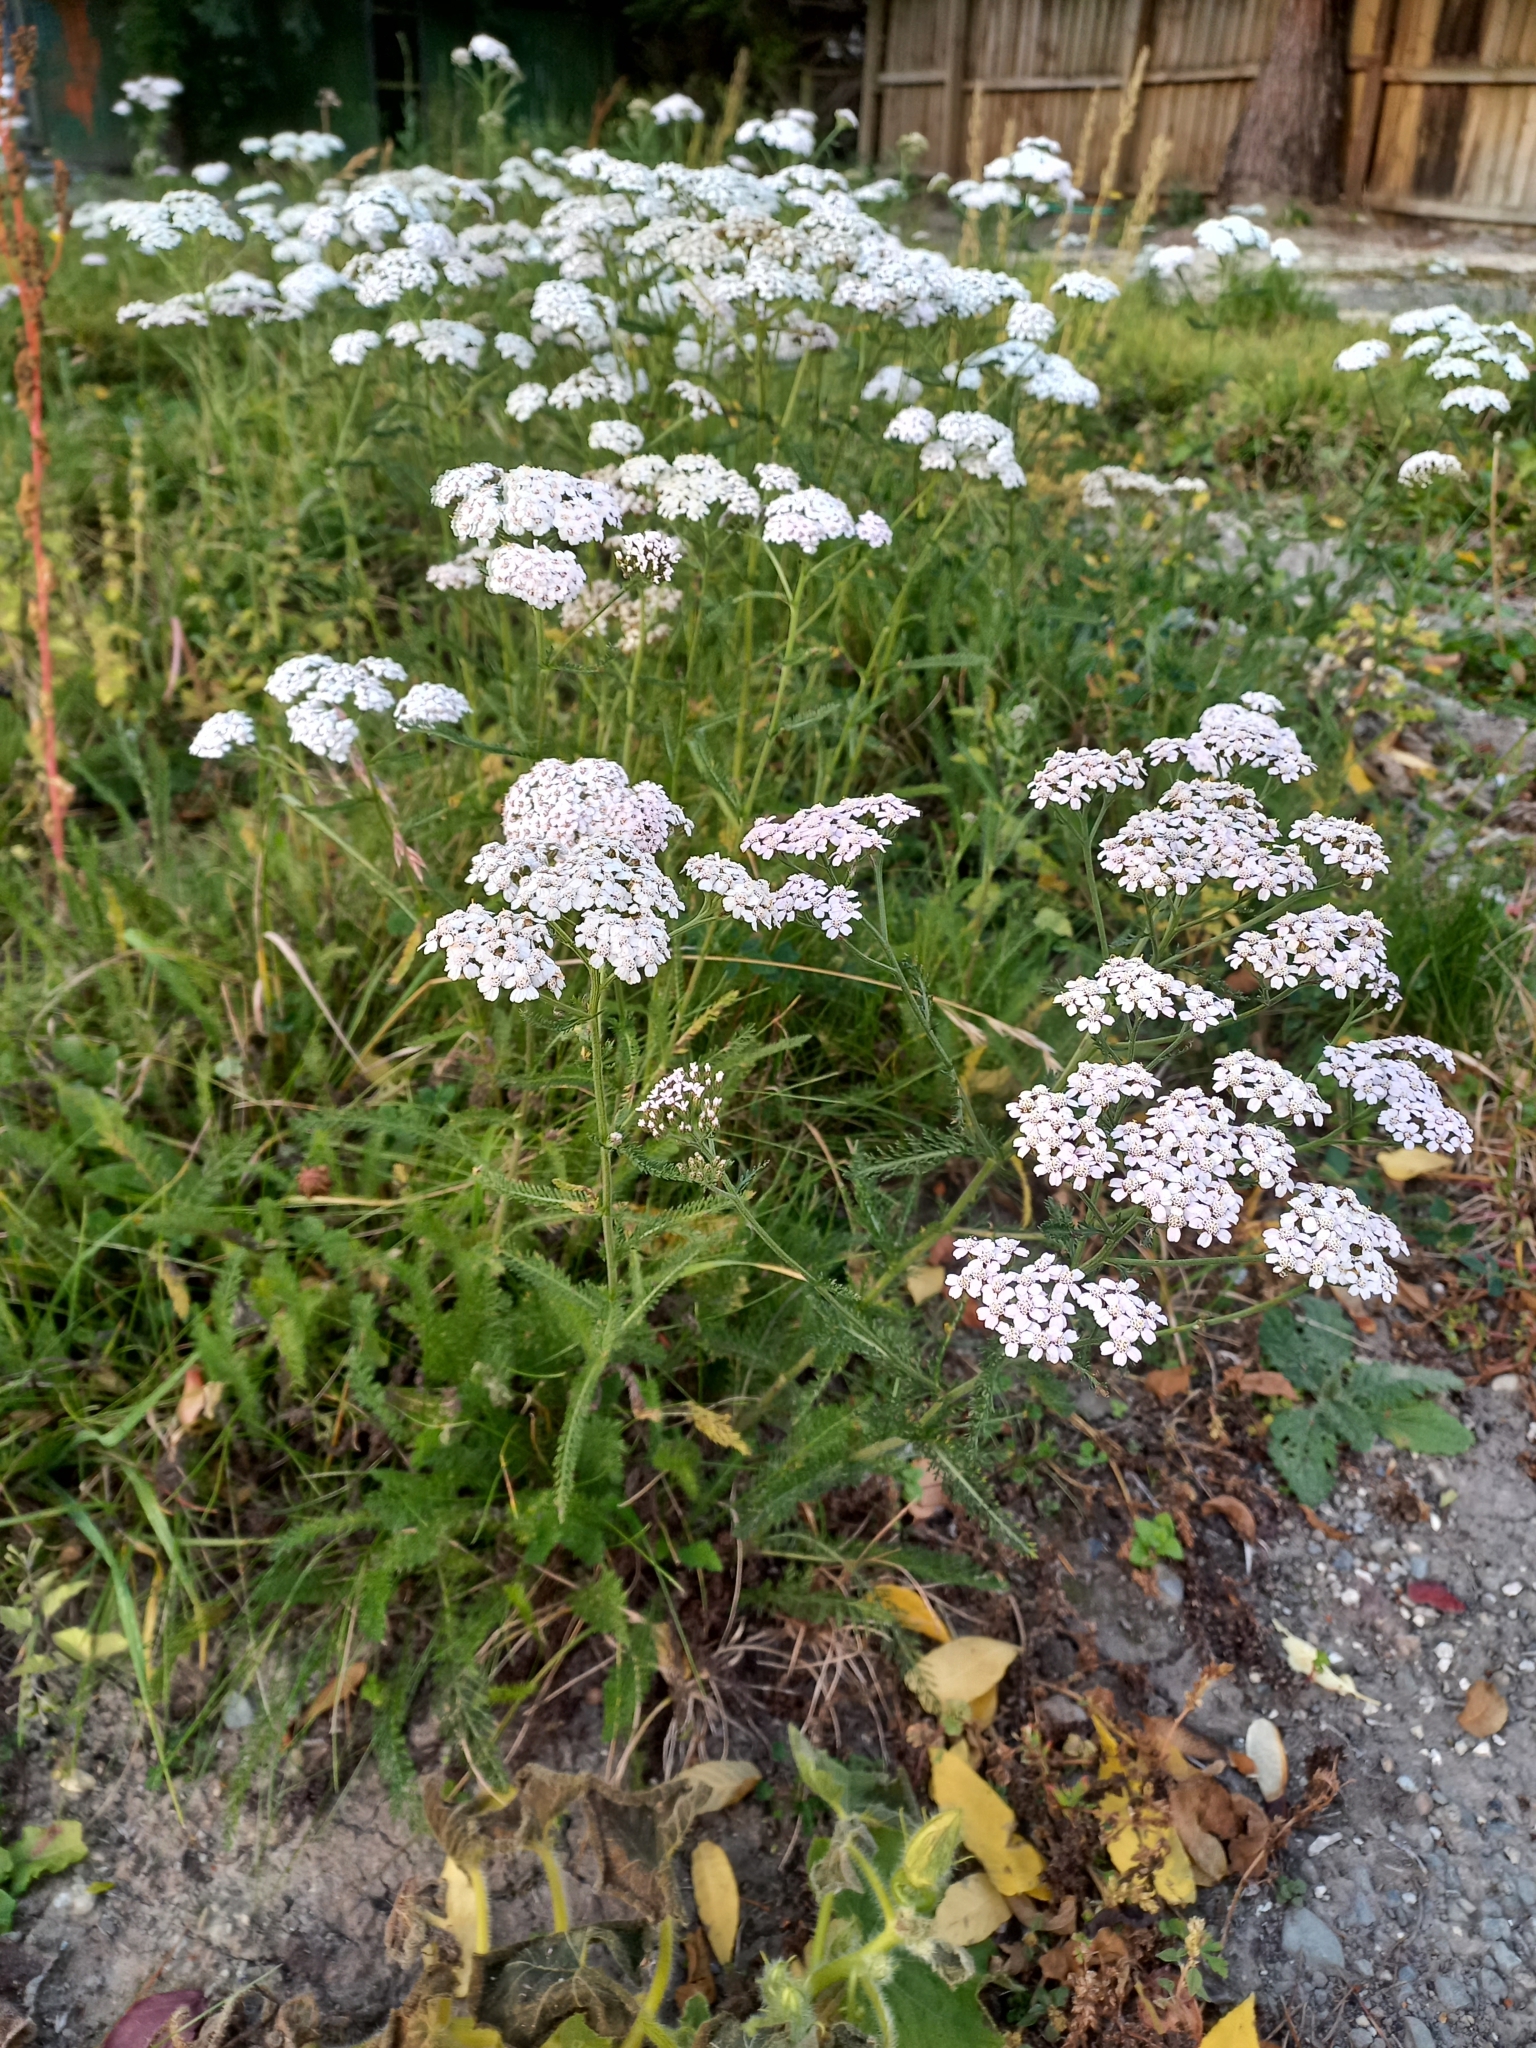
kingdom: Plantae
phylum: Tracheophyta
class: Magnoliopsida
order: Asterales
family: Asteraceae
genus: Achillea
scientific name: Achillea millefolium
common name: Yarrow
